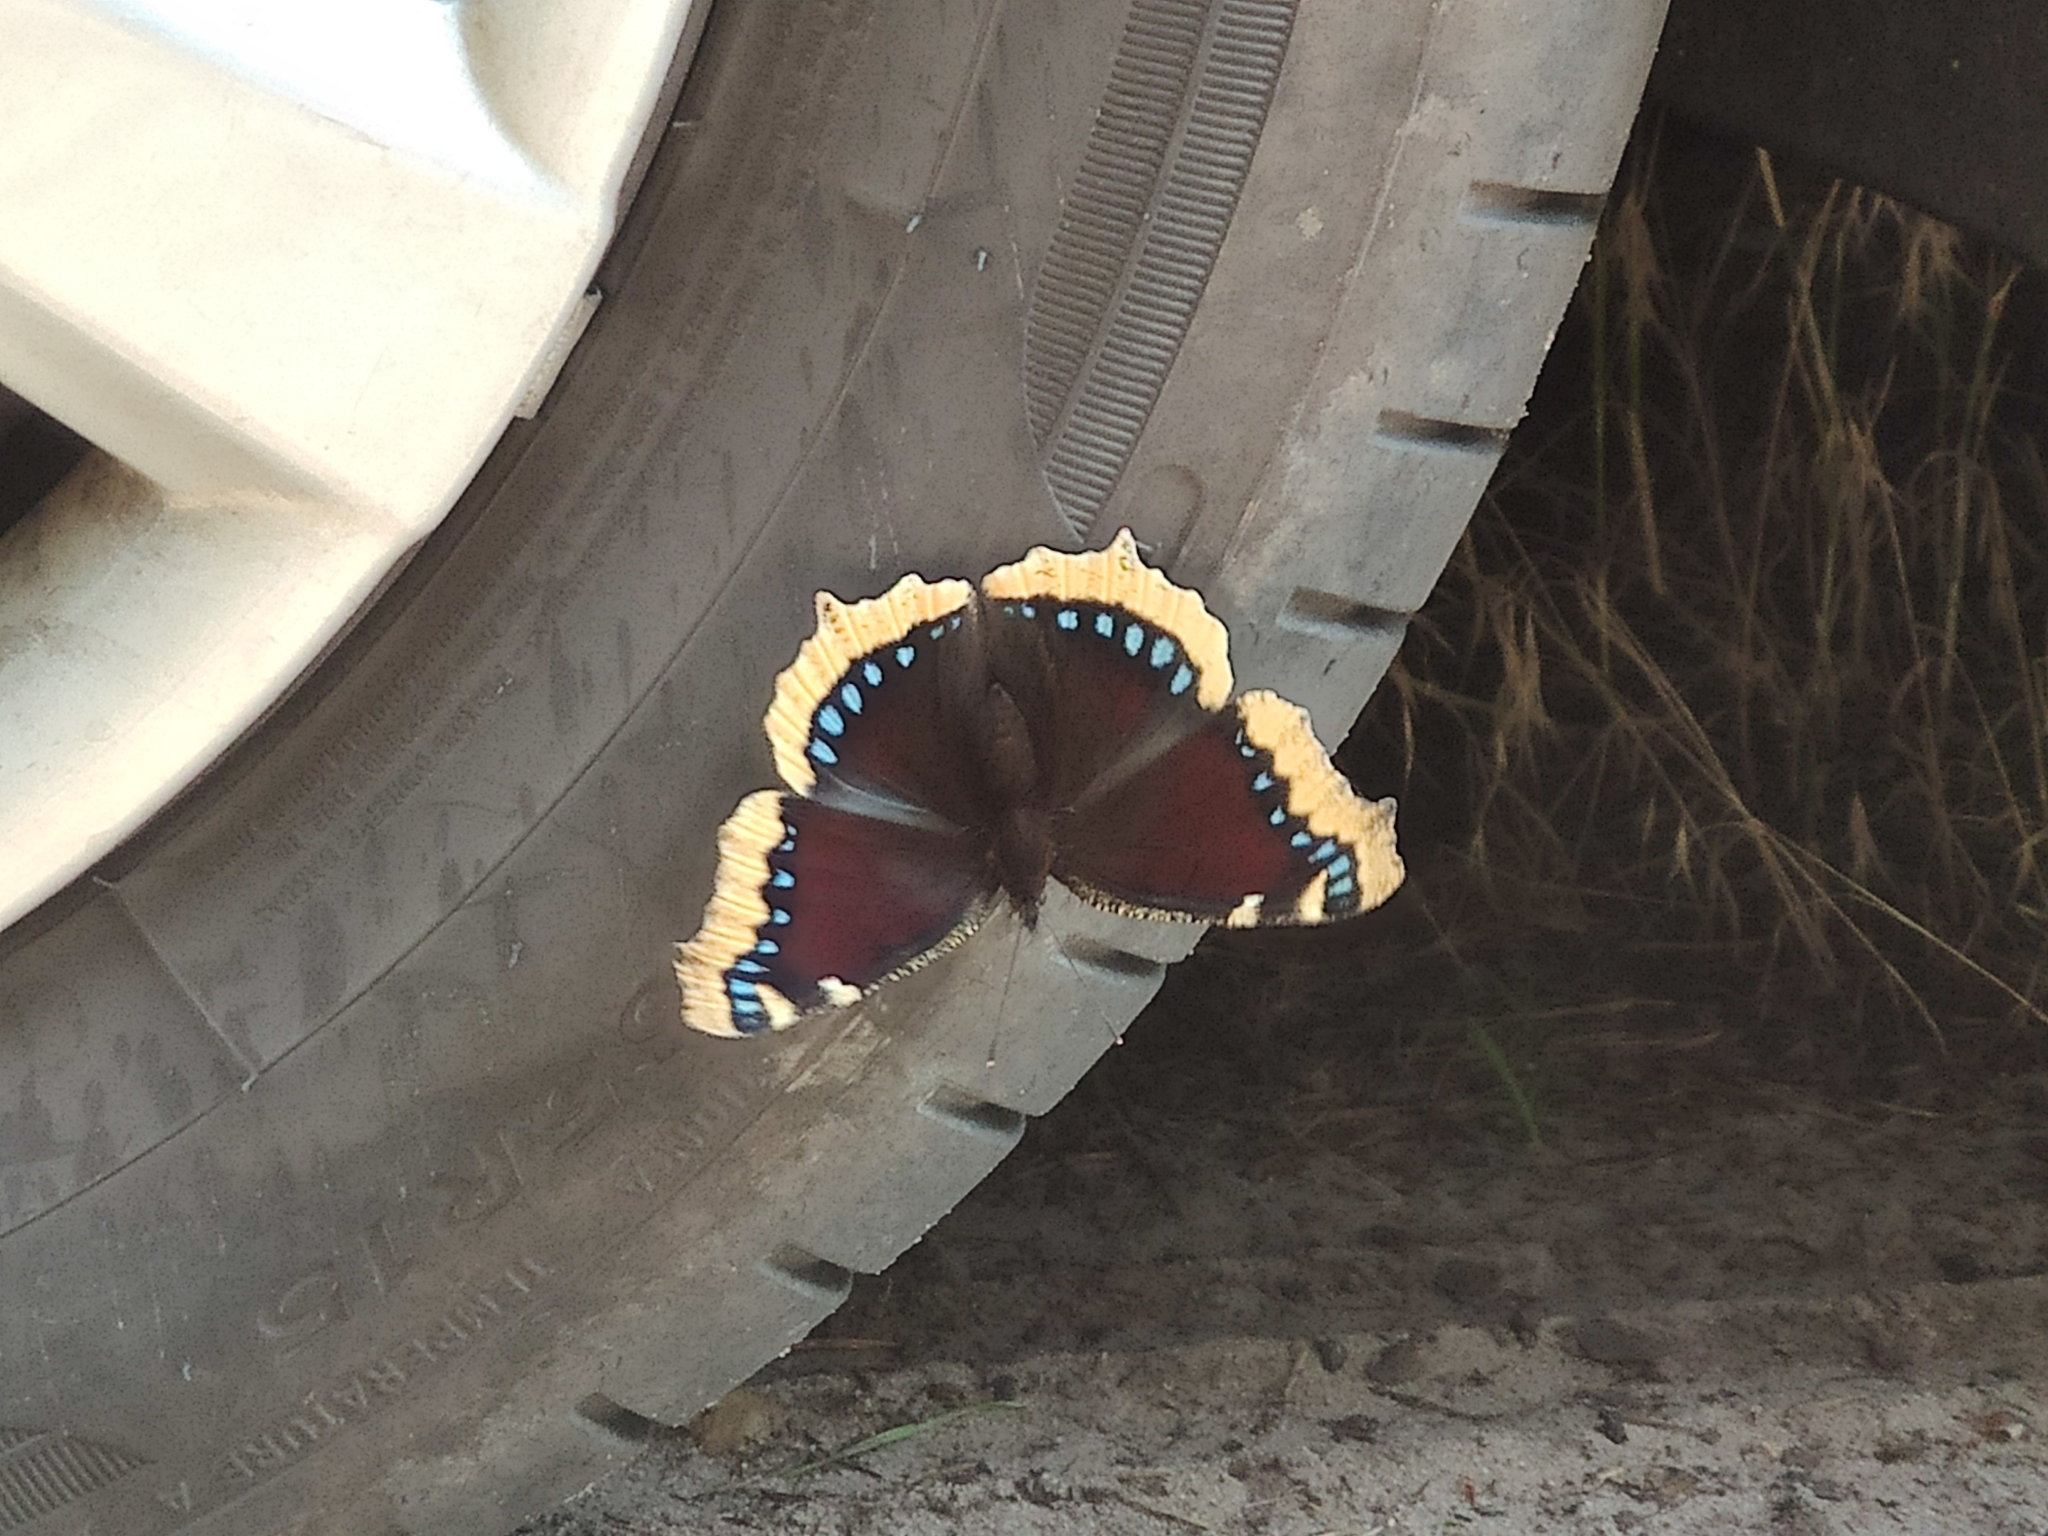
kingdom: Animalia
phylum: Arthropoda
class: Insecta
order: Lepidoptera
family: Nymphalidae
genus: Nymphalis
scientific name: Nymphalis antiopa
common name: Camberwell beauty
